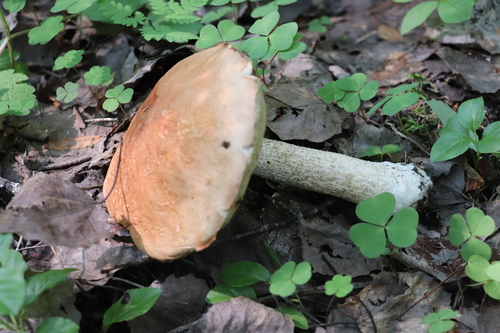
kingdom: Fungi
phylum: Basidiomycota
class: Agaricomycetes
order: Boletales
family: Boletaceae
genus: Leccinum
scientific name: Leccinum albostipitatum
